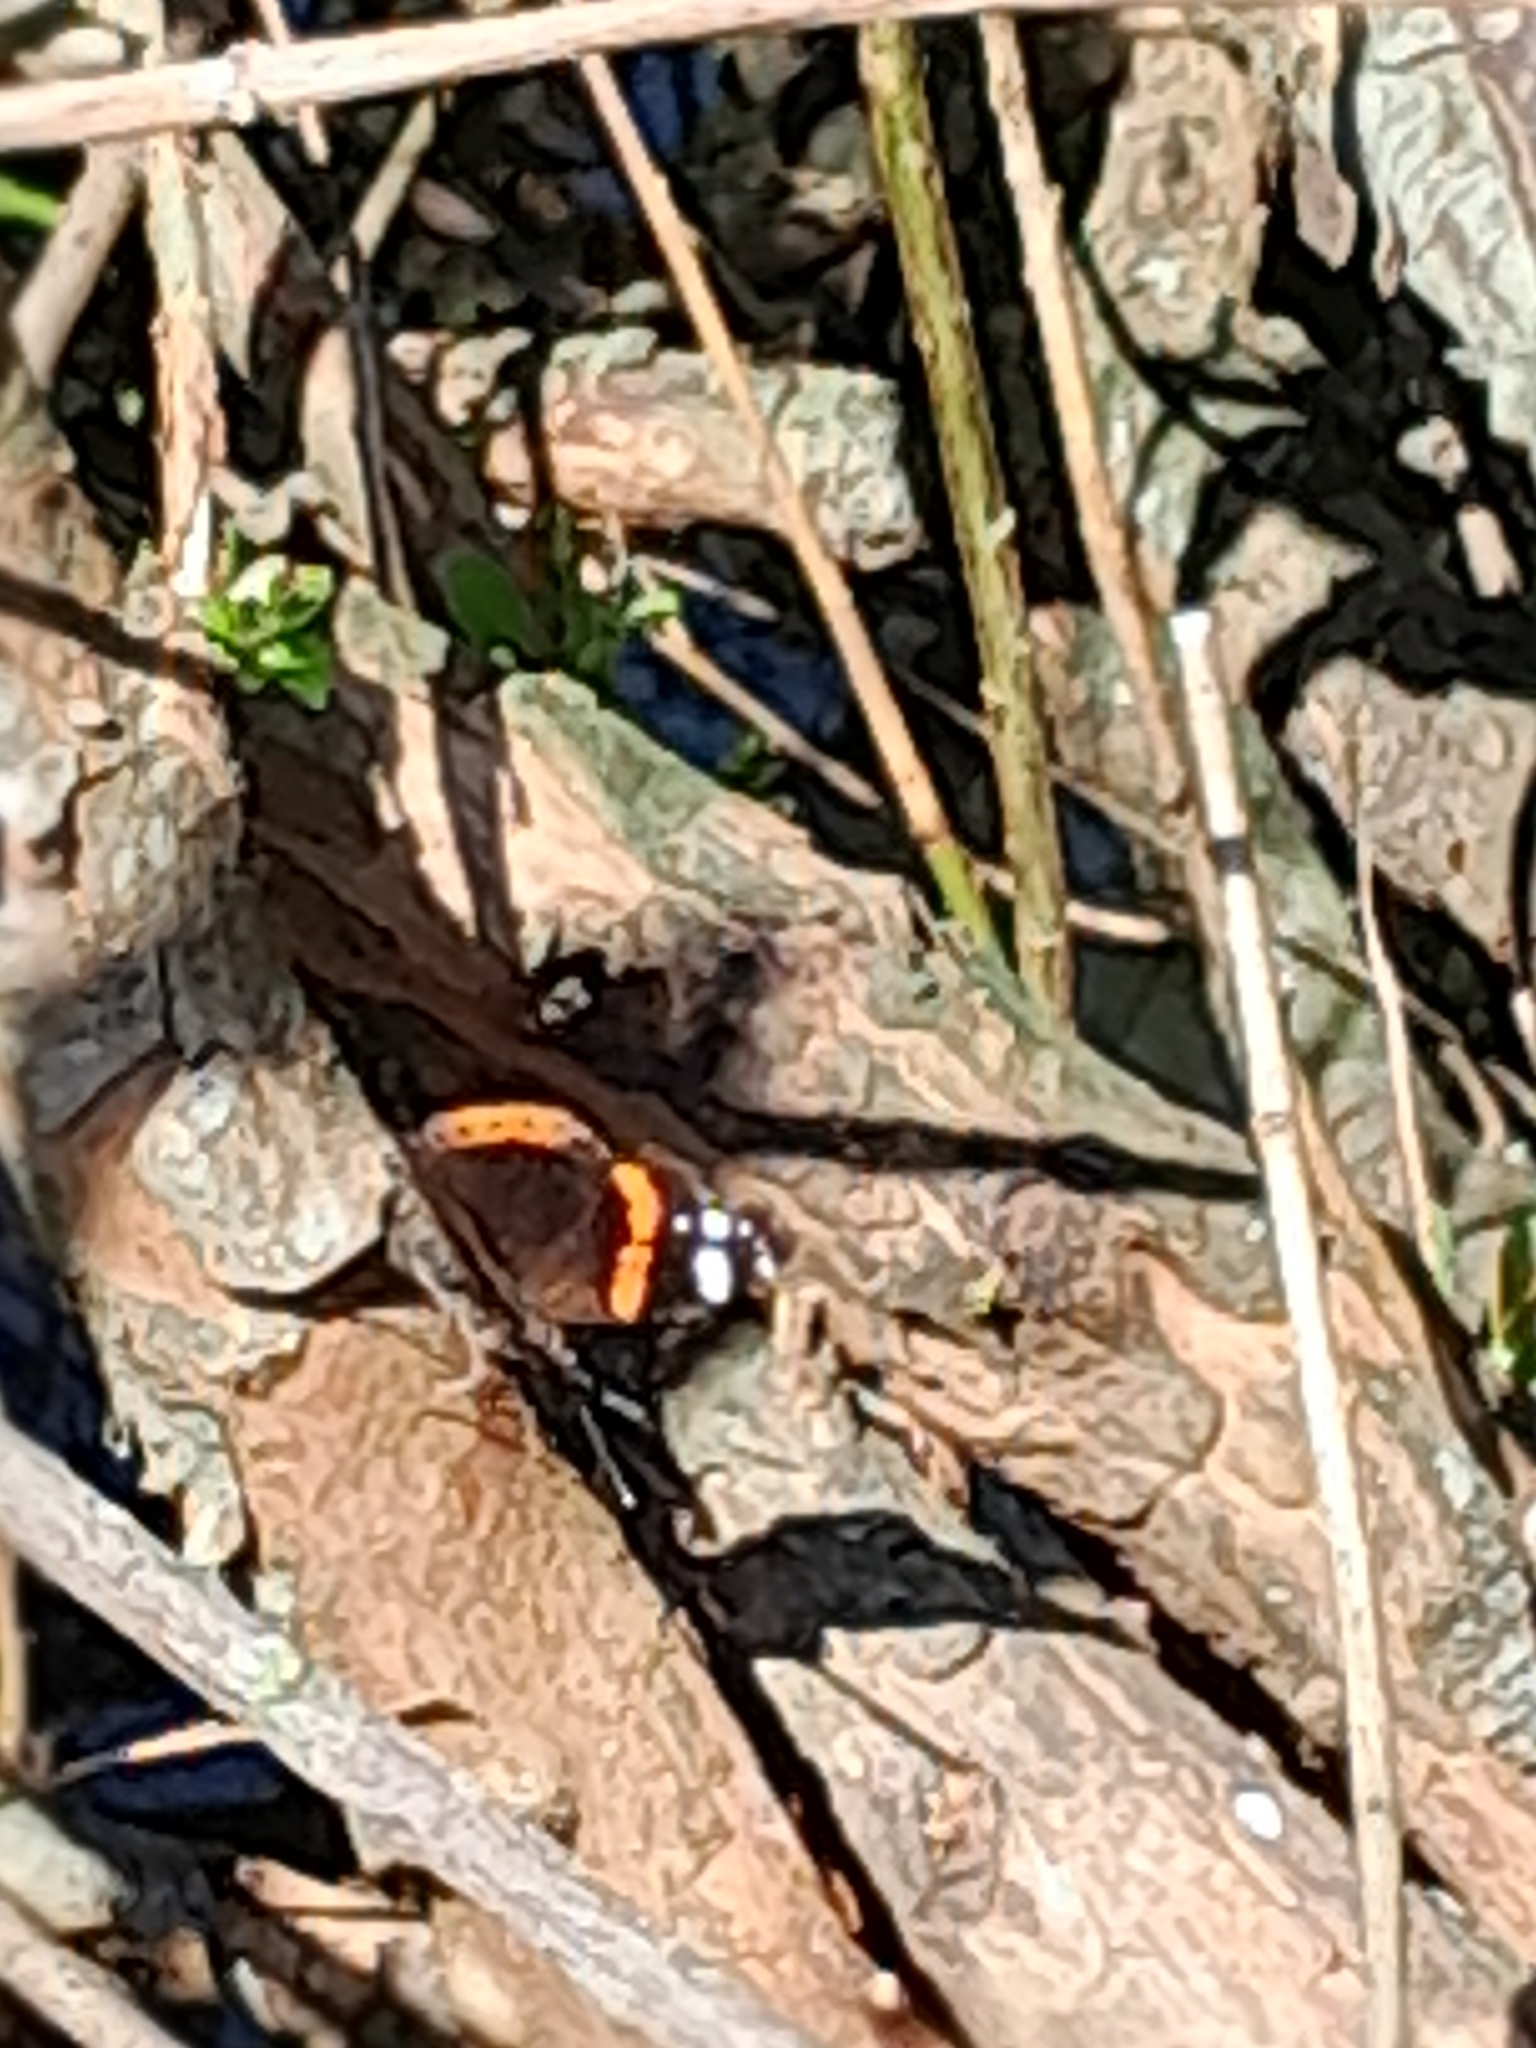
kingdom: Animalia
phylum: Arthropoda
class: Insecta
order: Lepidoptera
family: Nymphalidae
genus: Vanessa
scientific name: Vanessa atalanta
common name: Red admiral
